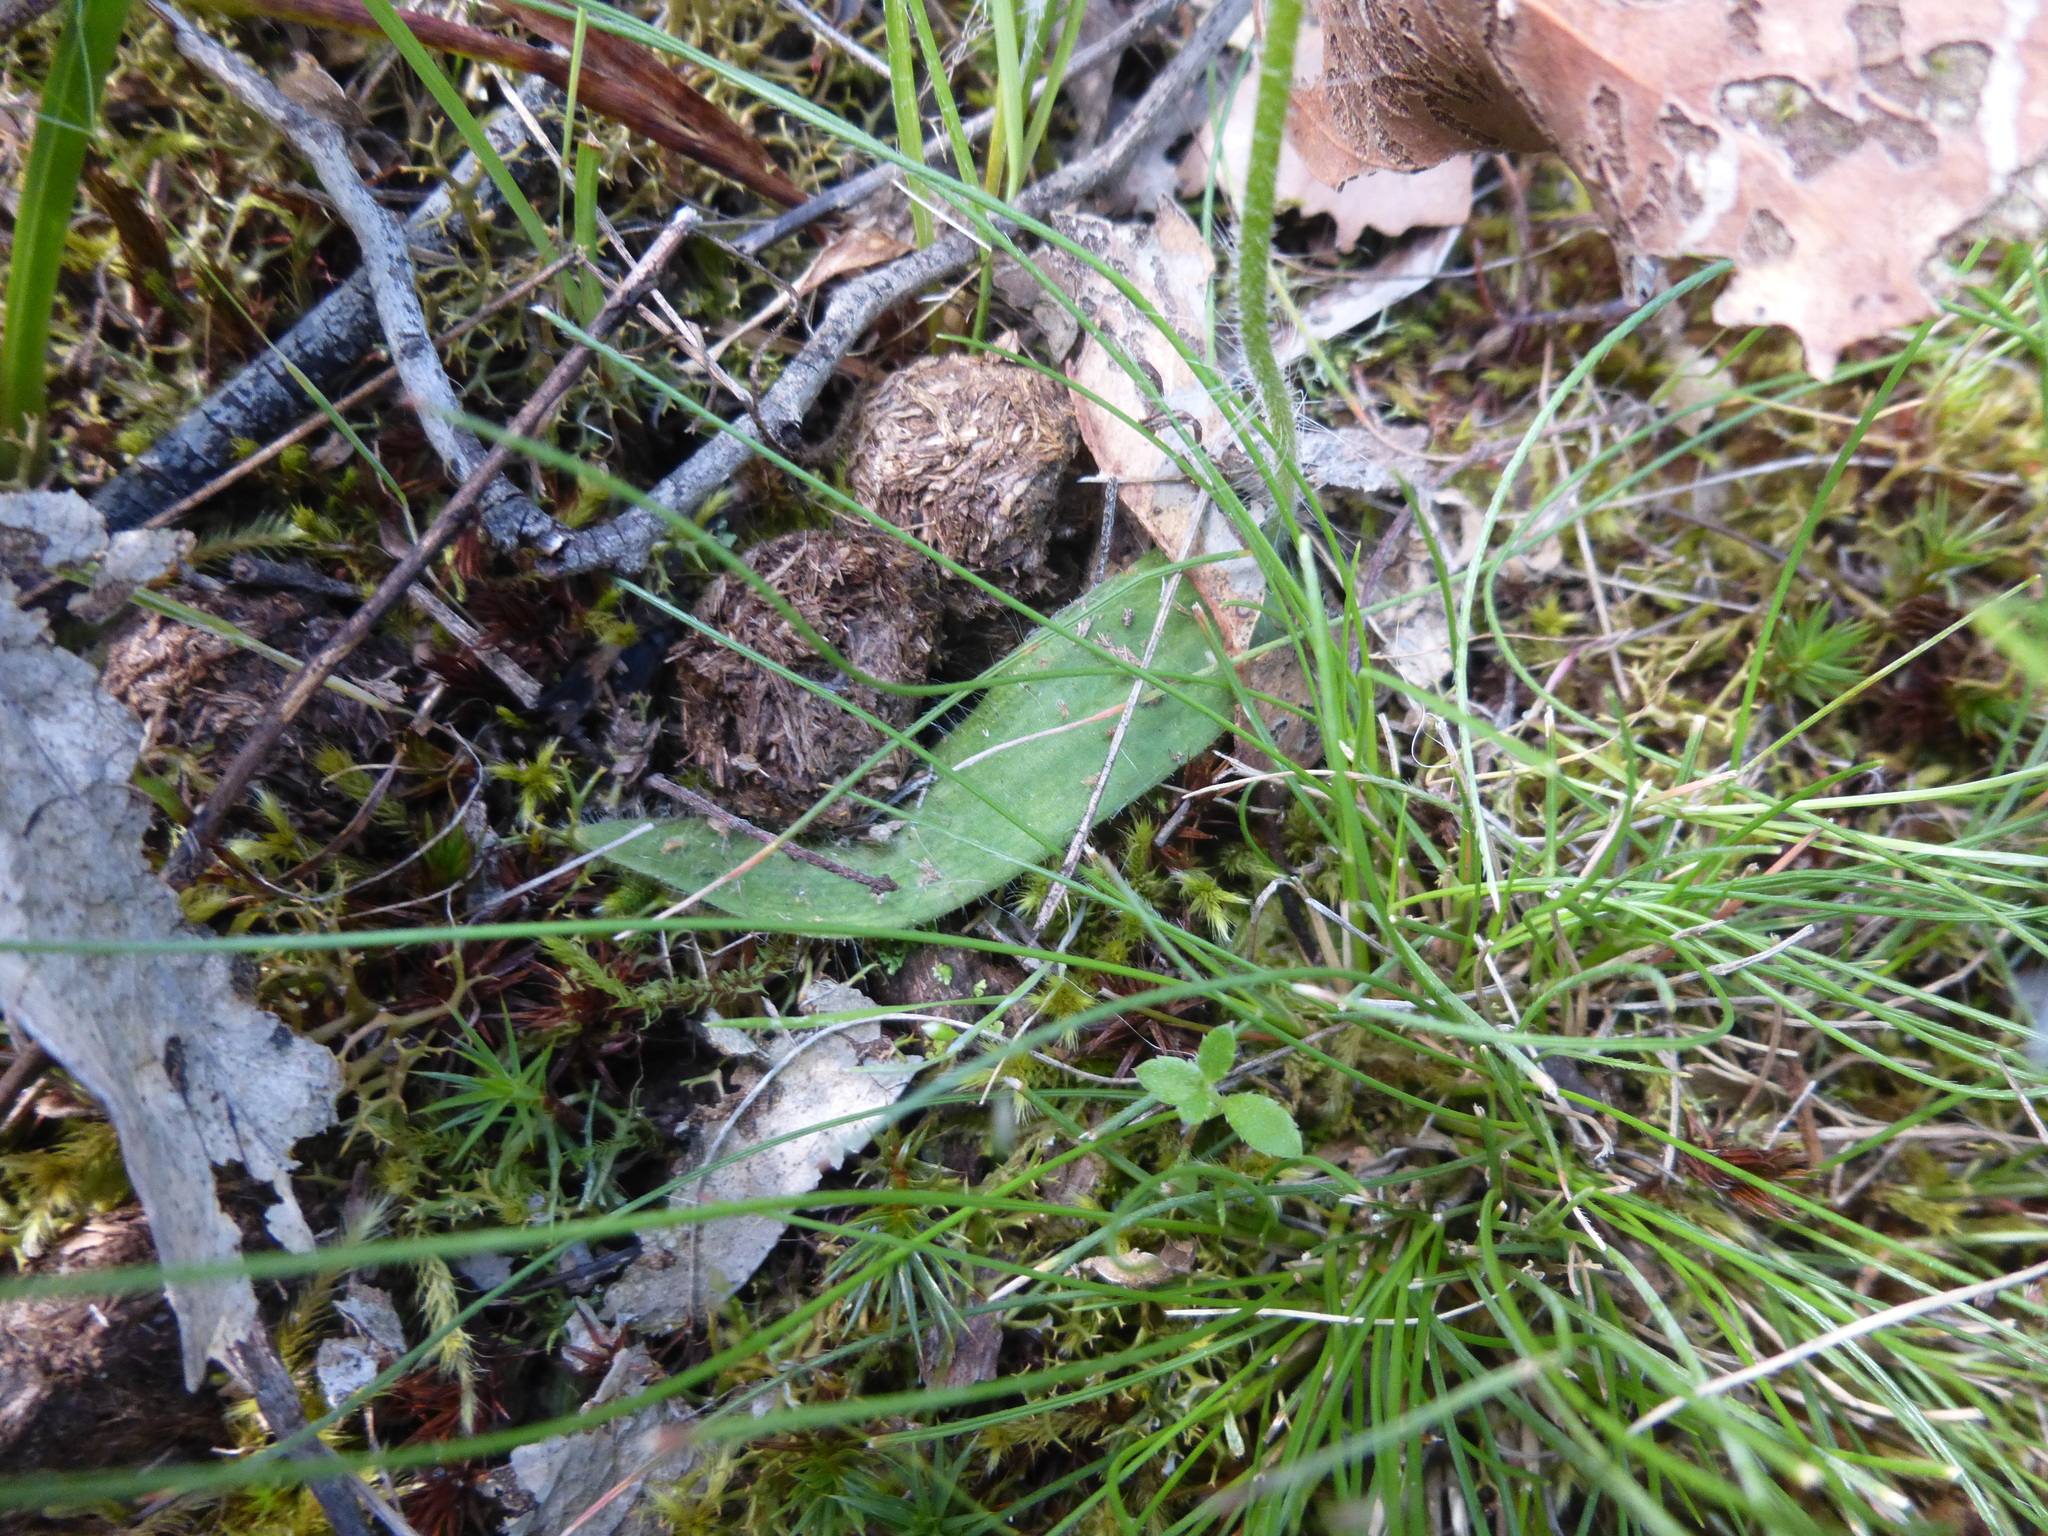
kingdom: Plantae
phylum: Tracheophyta
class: Liliopsida
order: Asparagales
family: Orchidaceae
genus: Caladenia
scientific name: Caladenia major
